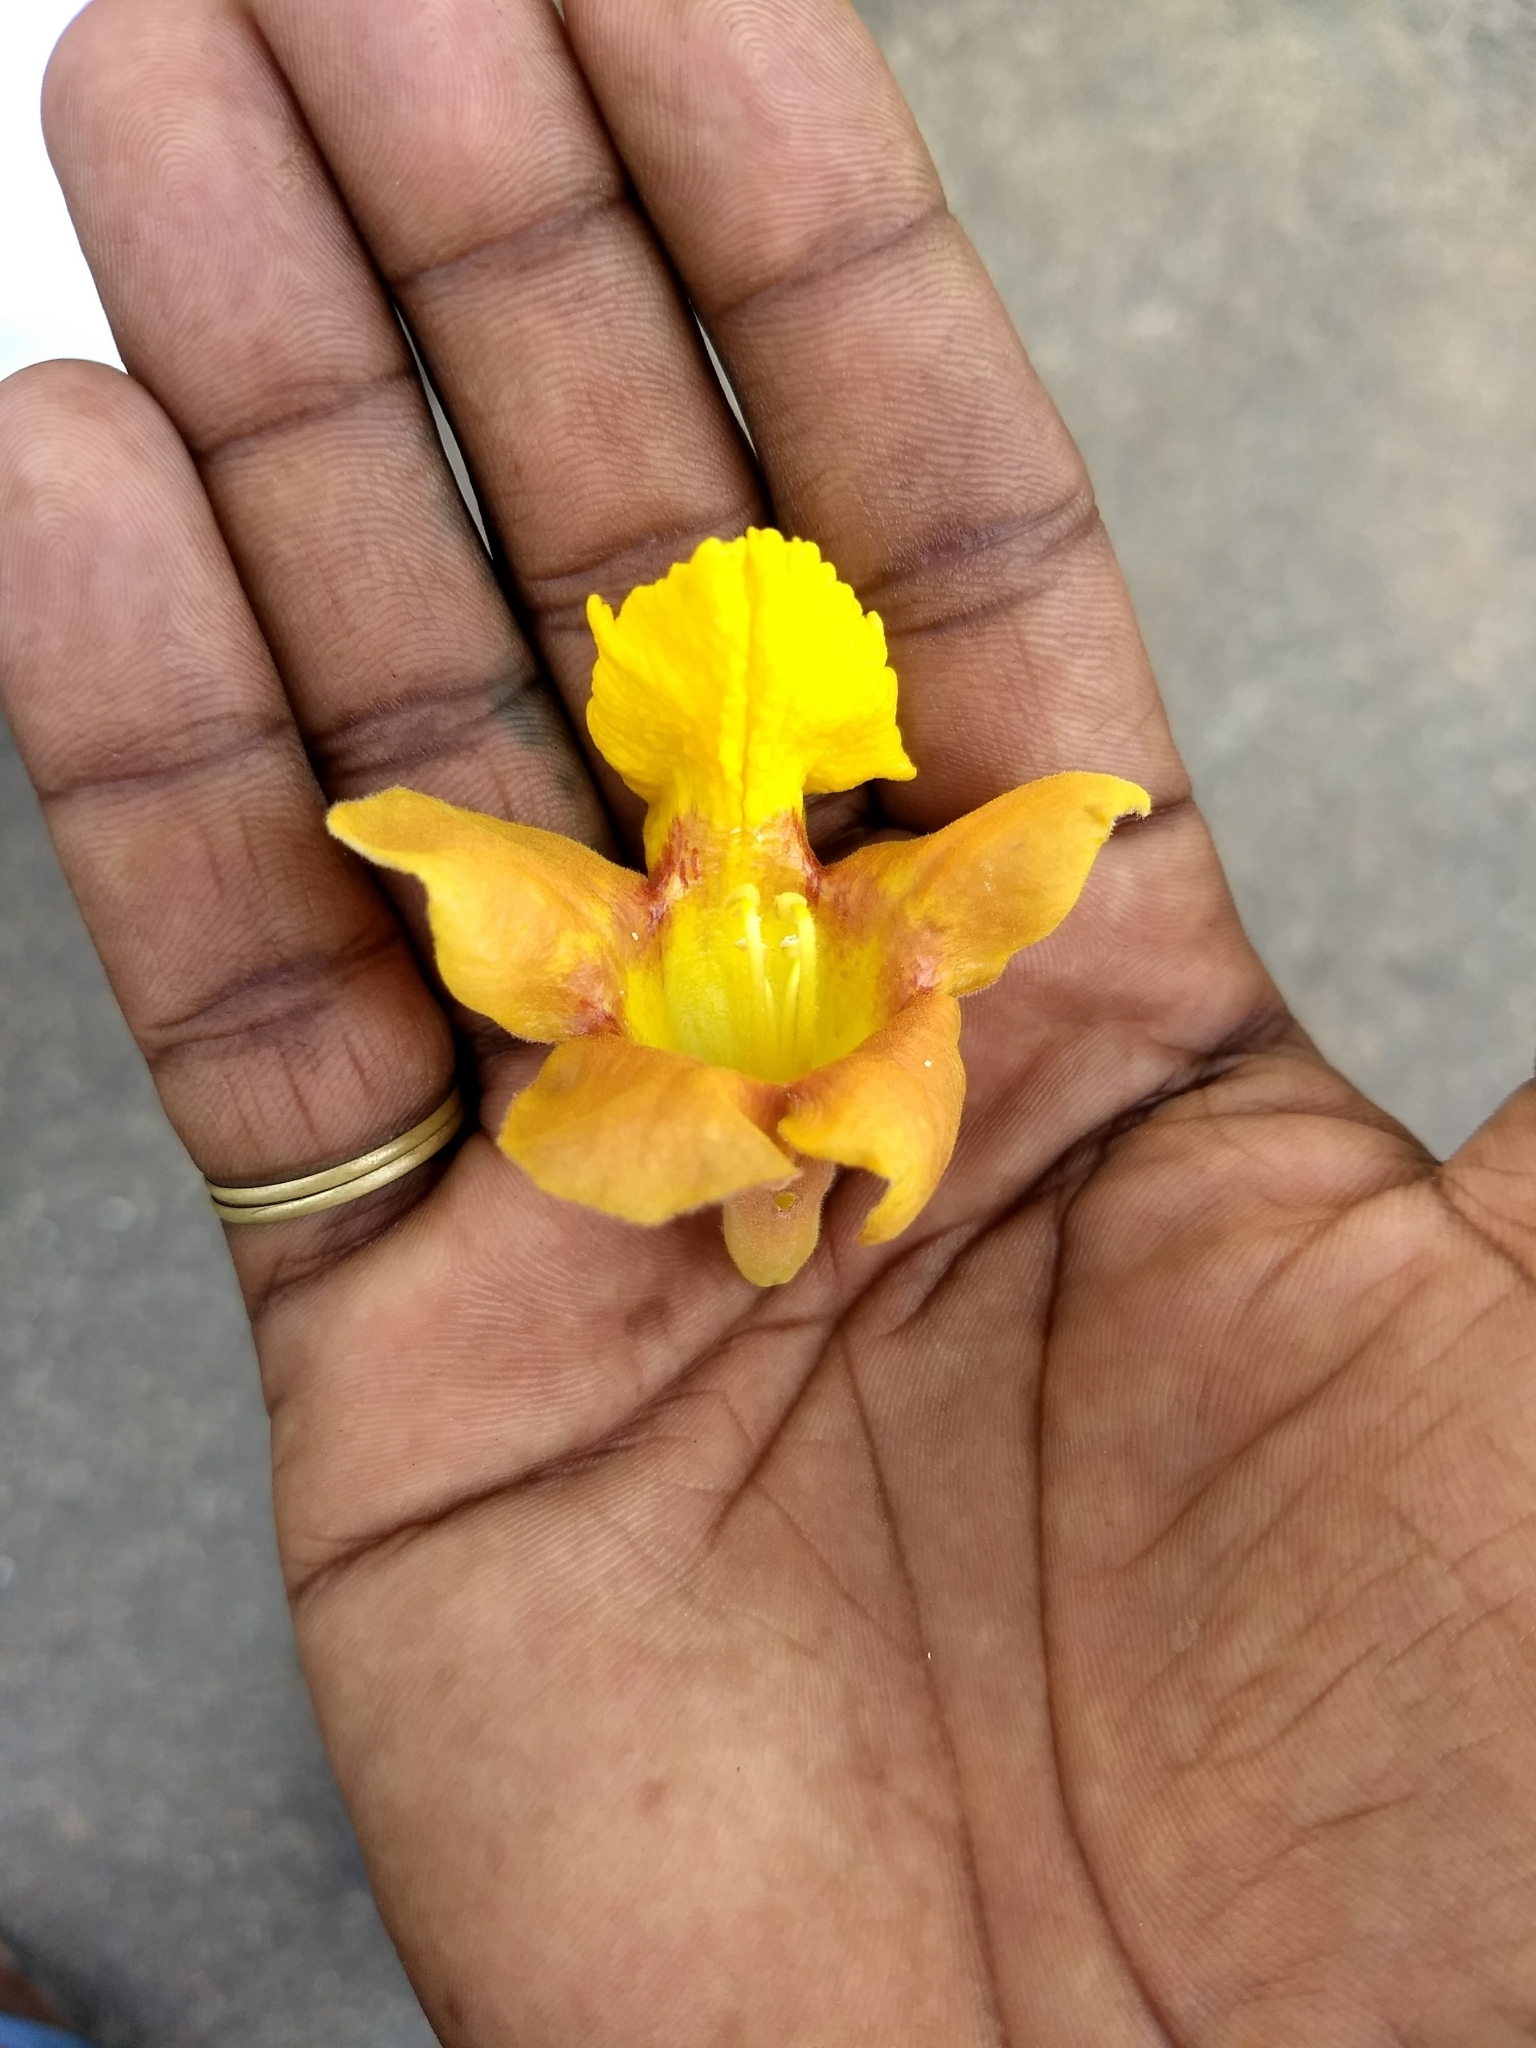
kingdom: Plantae
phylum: Tracheophyta
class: Magnoliopsida
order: Lamiales
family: Lamiaceae
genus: Gmelina
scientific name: Gmelina arborea
